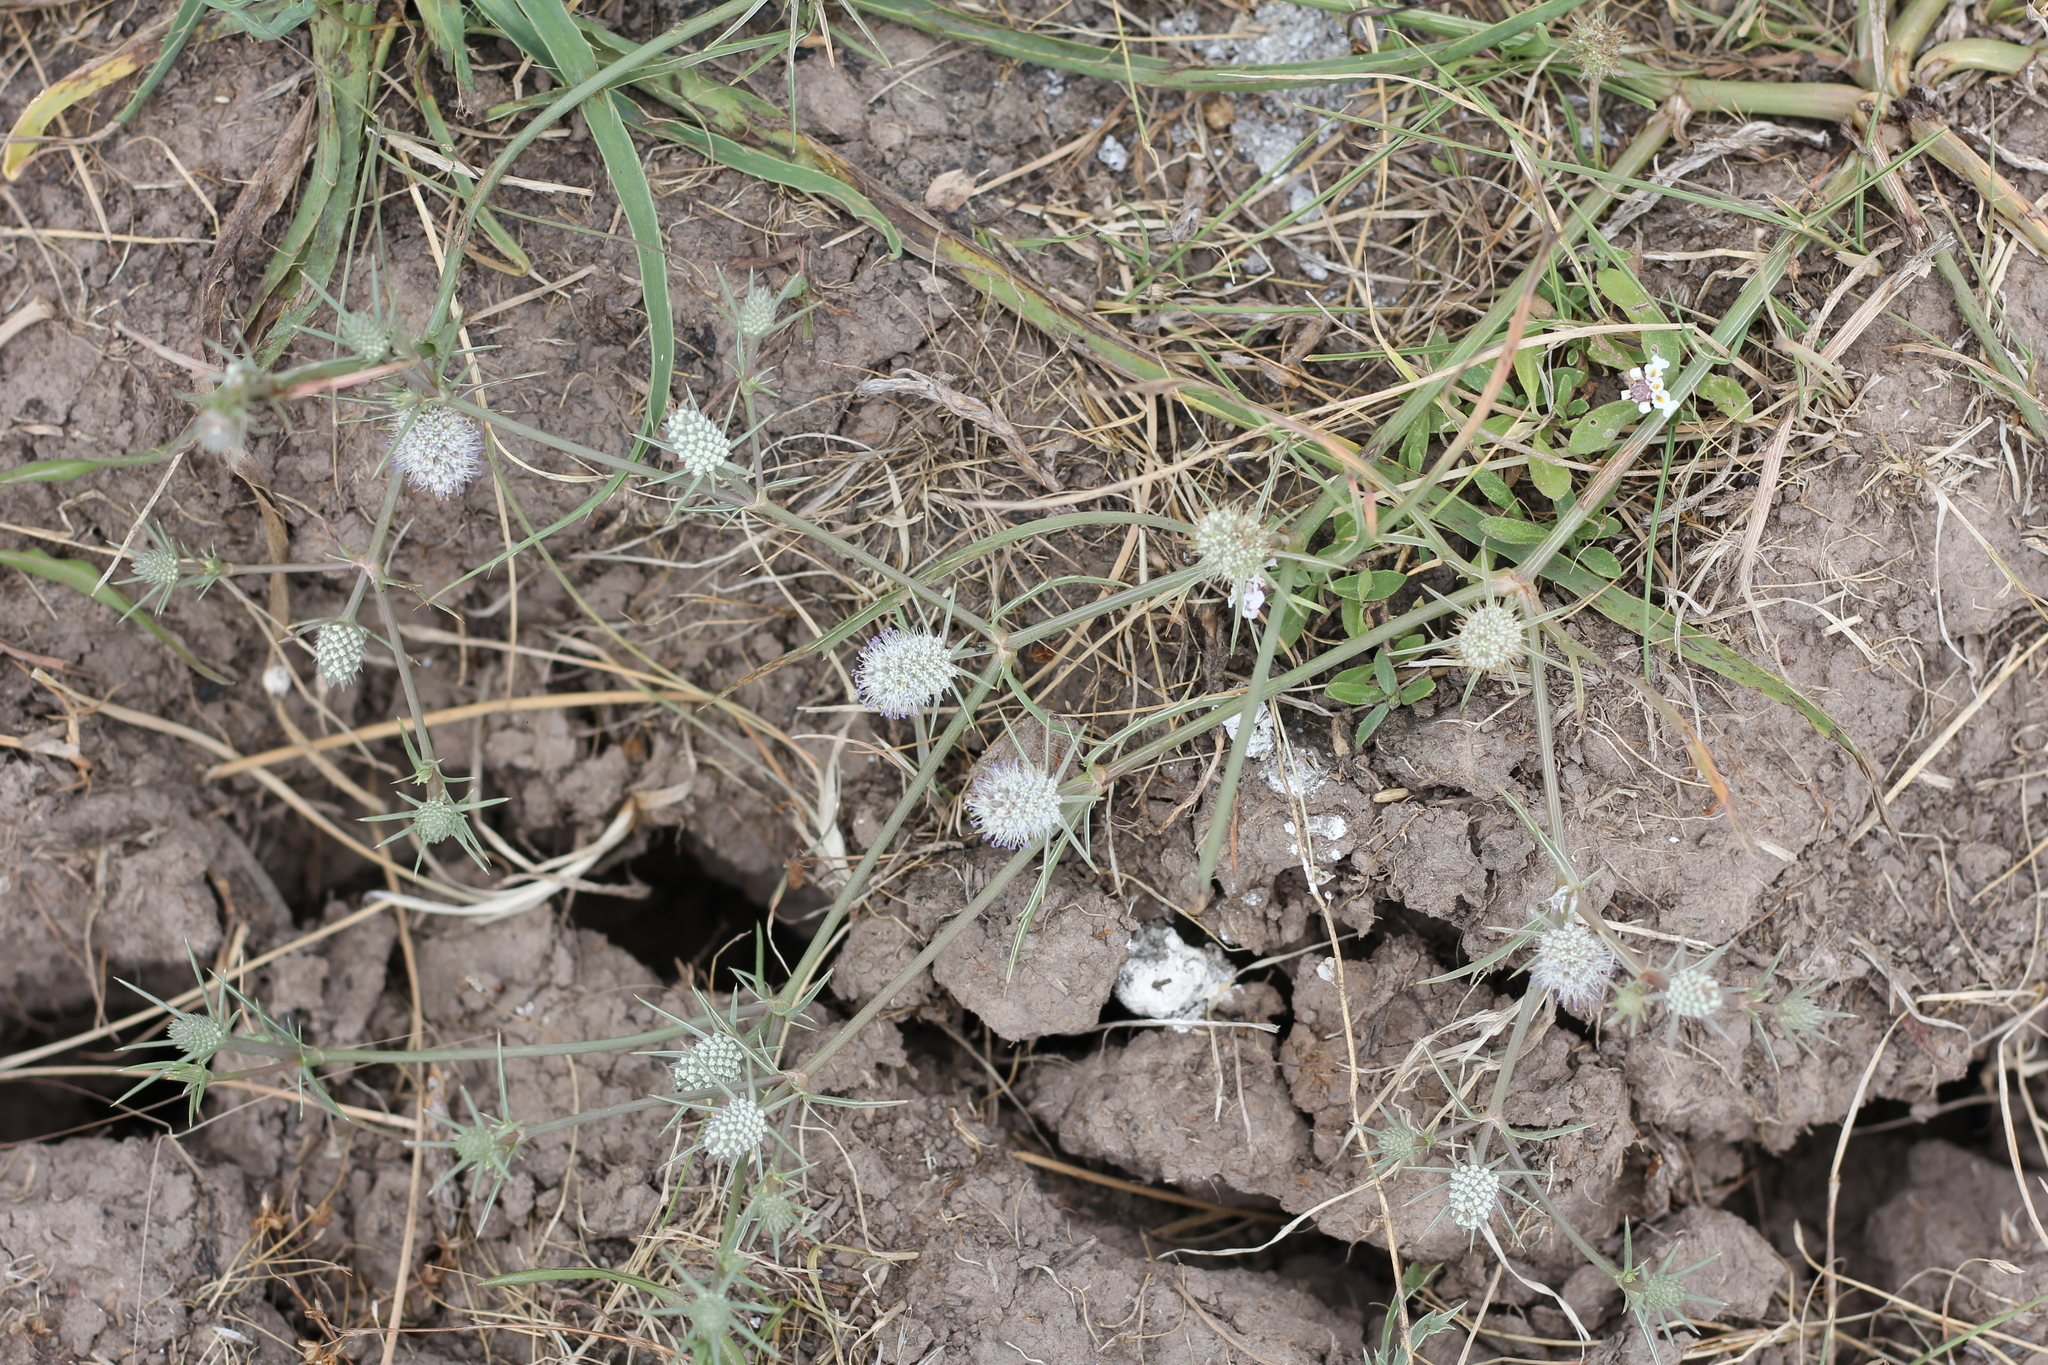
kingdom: Plantae
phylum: Tracheophyta
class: Magnoliopsida
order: Apiales
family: Apiaceae
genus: Eryngium
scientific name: Eryngium nudicaule
